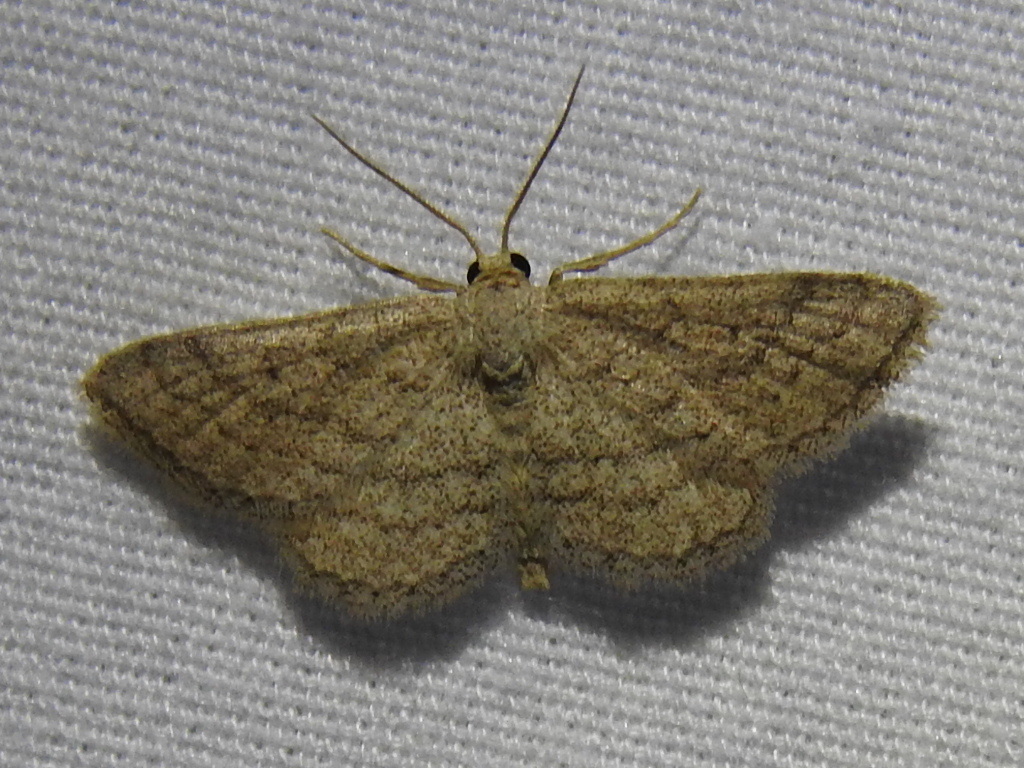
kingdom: Animalia
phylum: Arthropoda
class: Insecta
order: Lepidoptera
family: Geometridae
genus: Lobocleta
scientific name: Lobocleta ossularia
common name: Drab brown wave
